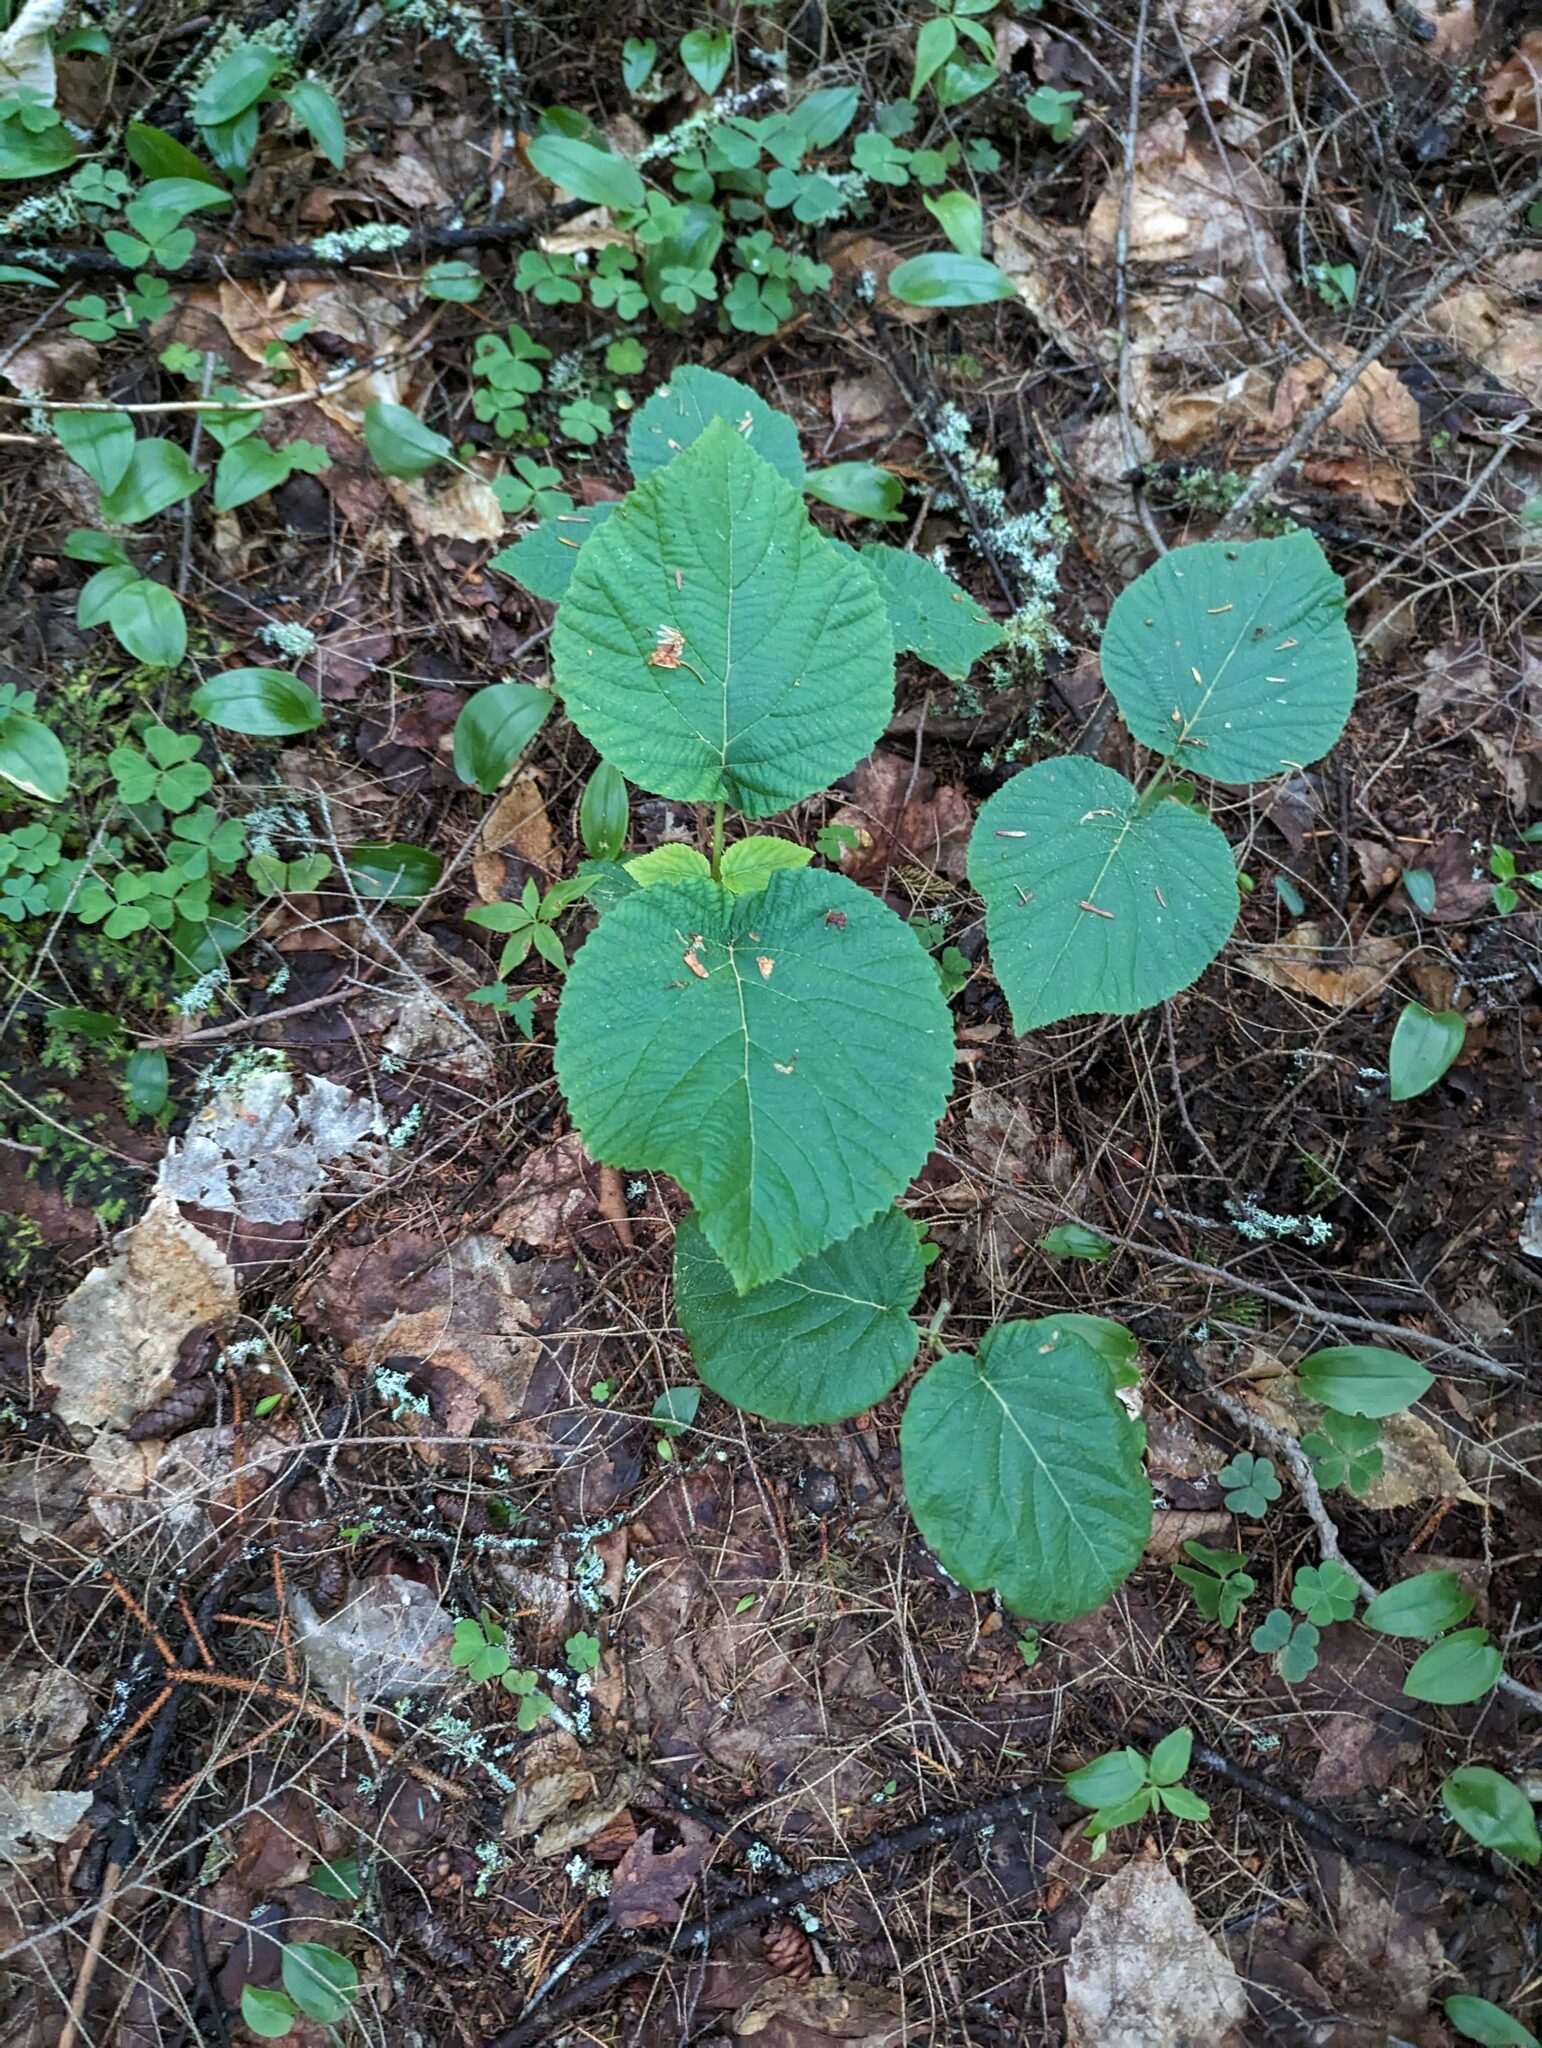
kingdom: Plantae
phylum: Tracheophyta
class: Magnoliopsida
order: Dipsacales
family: Viburnaceae
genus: Viburnum
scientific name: Viburnum lantanoides
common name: Hobblebush
